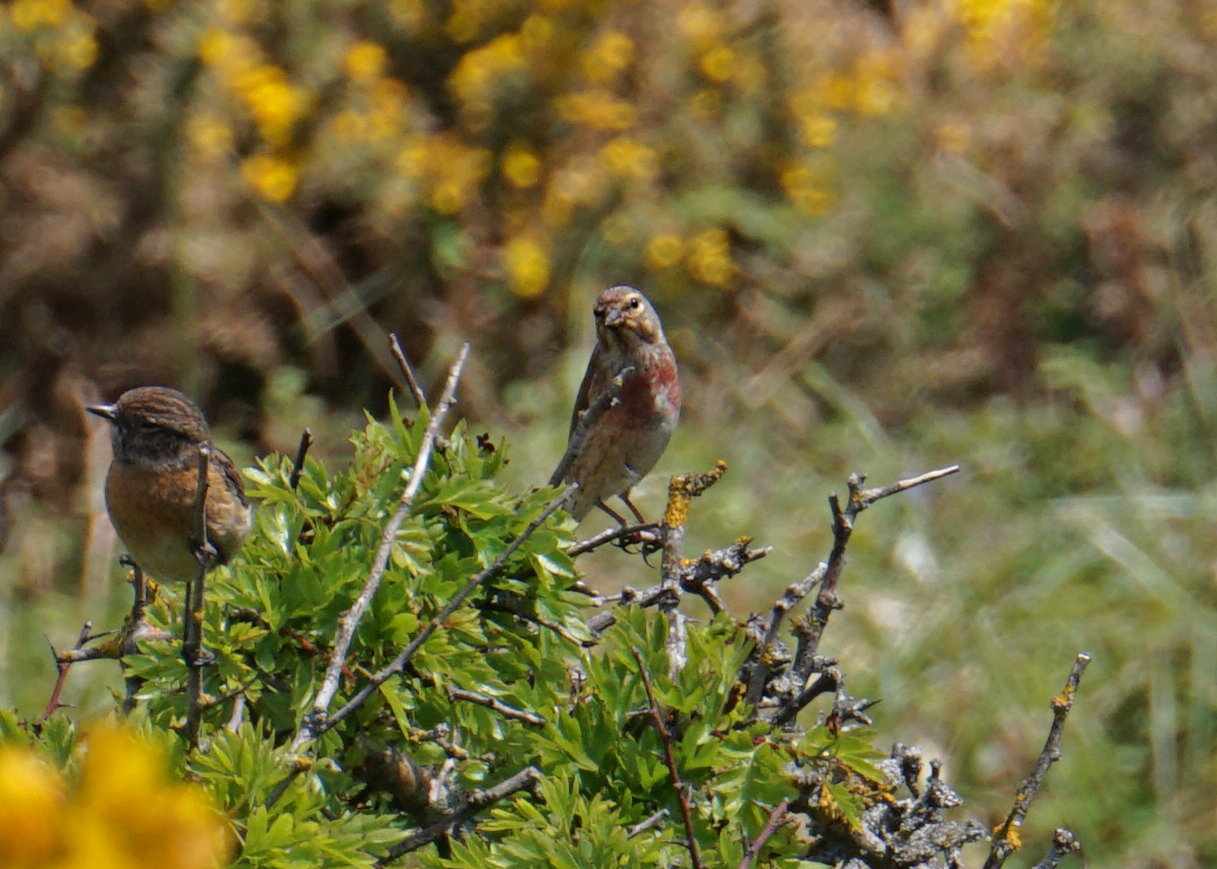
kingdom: Animalia
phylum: Chordata
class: Aves
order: Passeriformes
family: Fringillidae
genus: Linaria
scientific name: Linaria cannabina
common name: Common linnet
